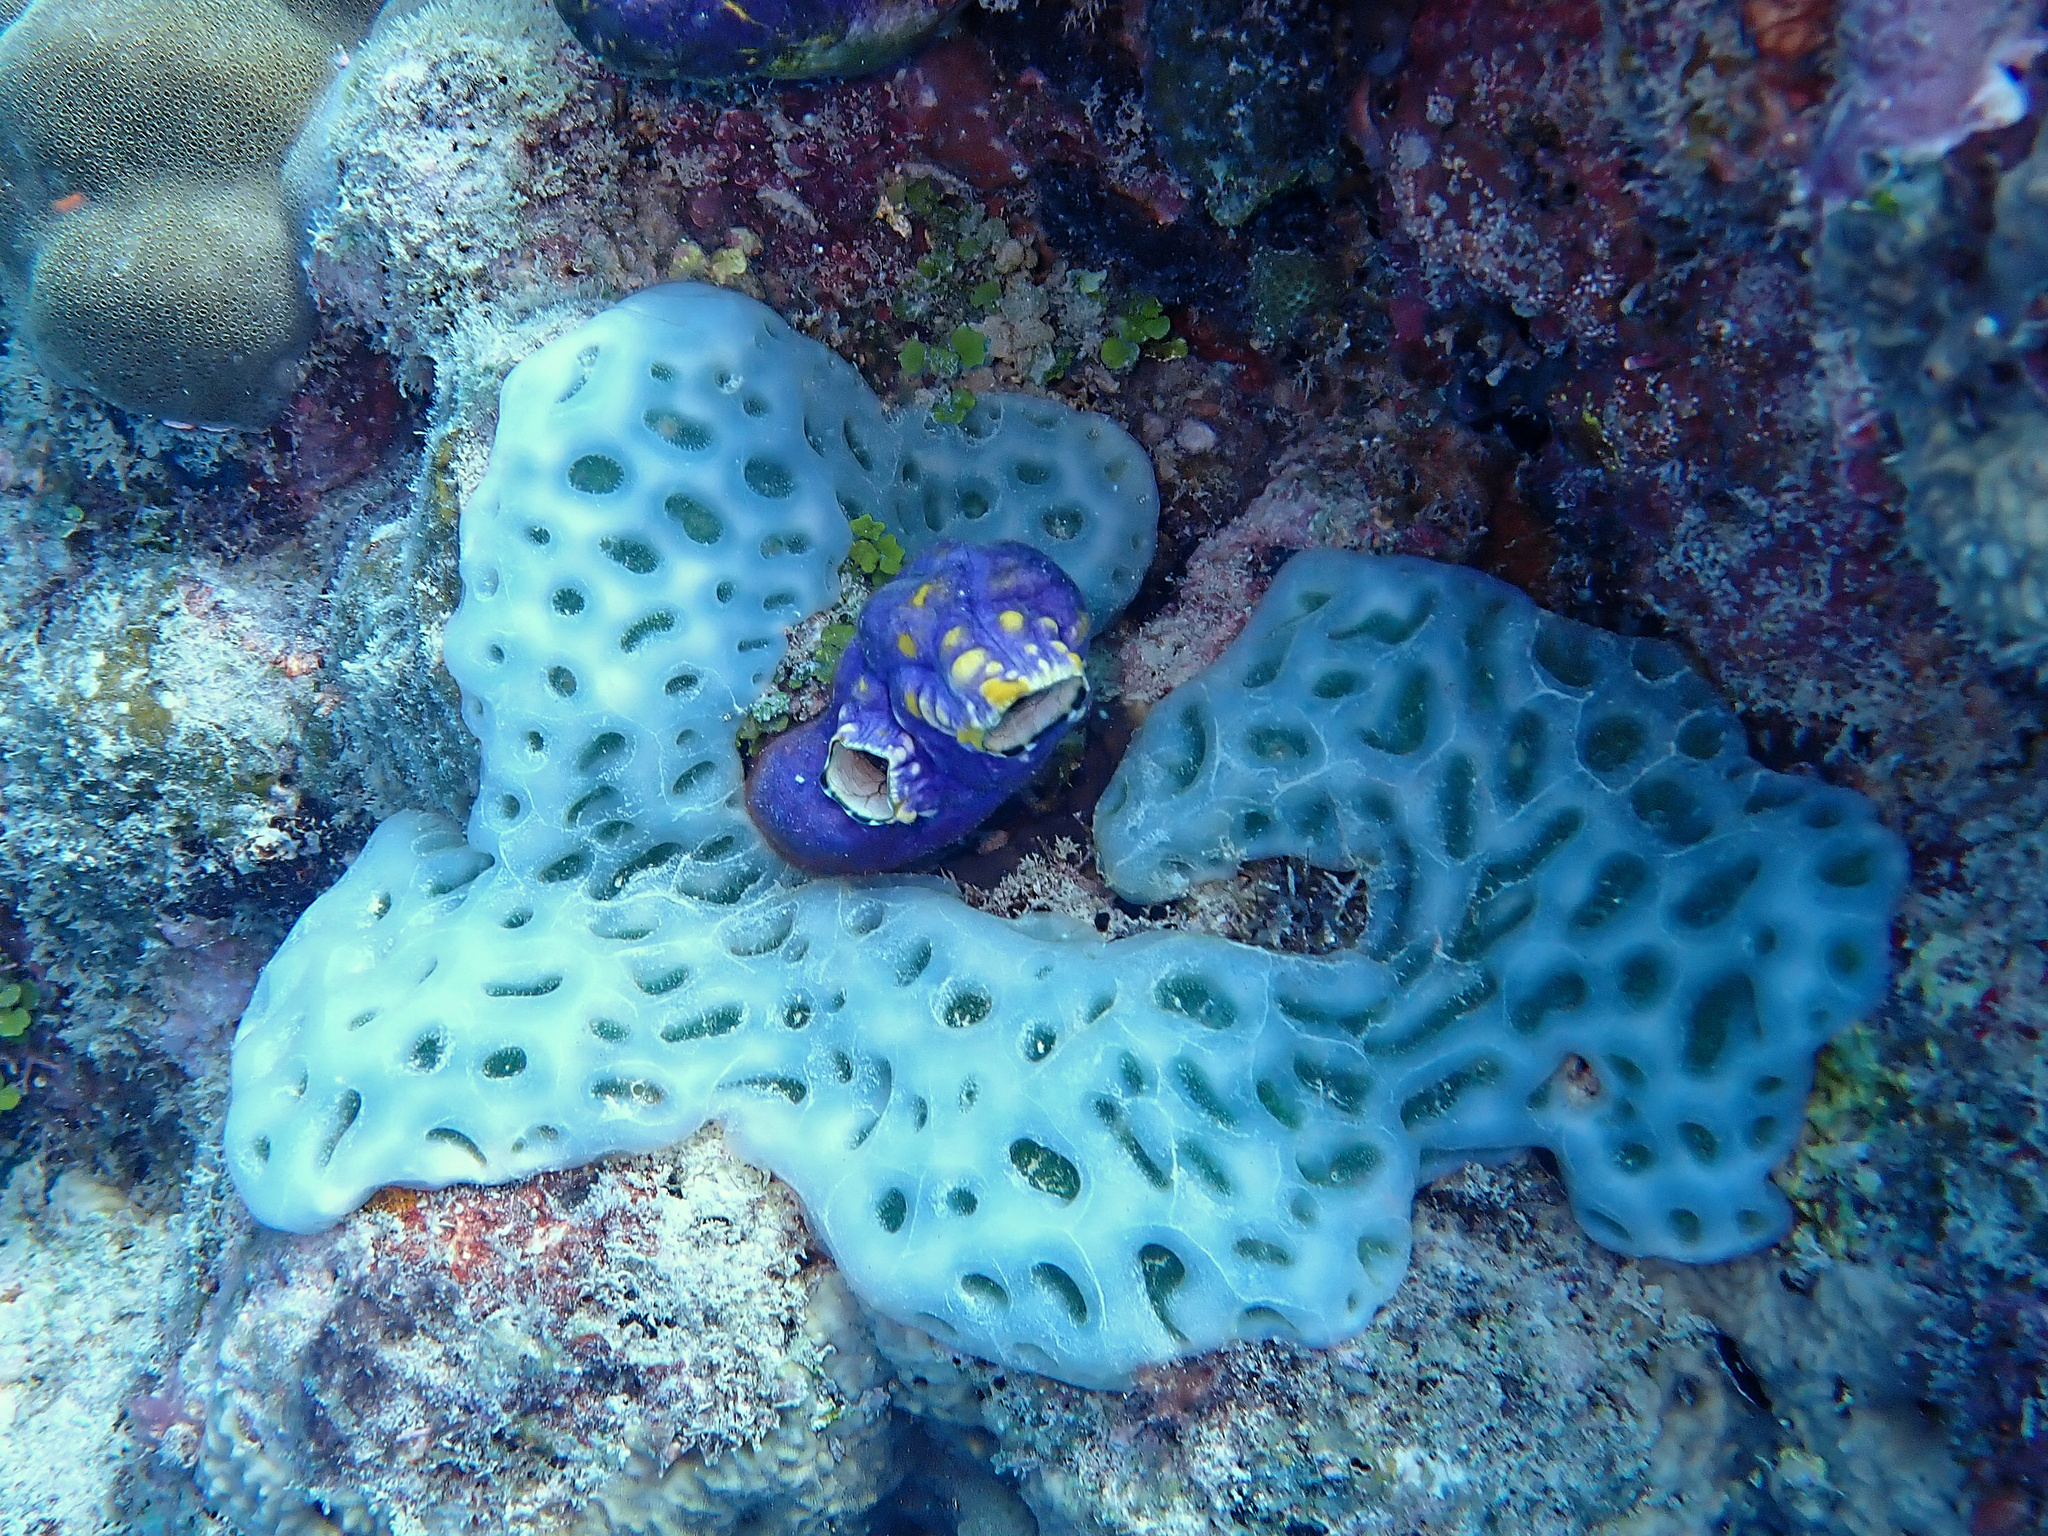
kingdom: Animalia
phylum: Chordata
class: Ascidiacea
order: Aplousobranchia
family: Didemnidae
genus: Lissoclinum
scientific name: Lissoclinum patella
